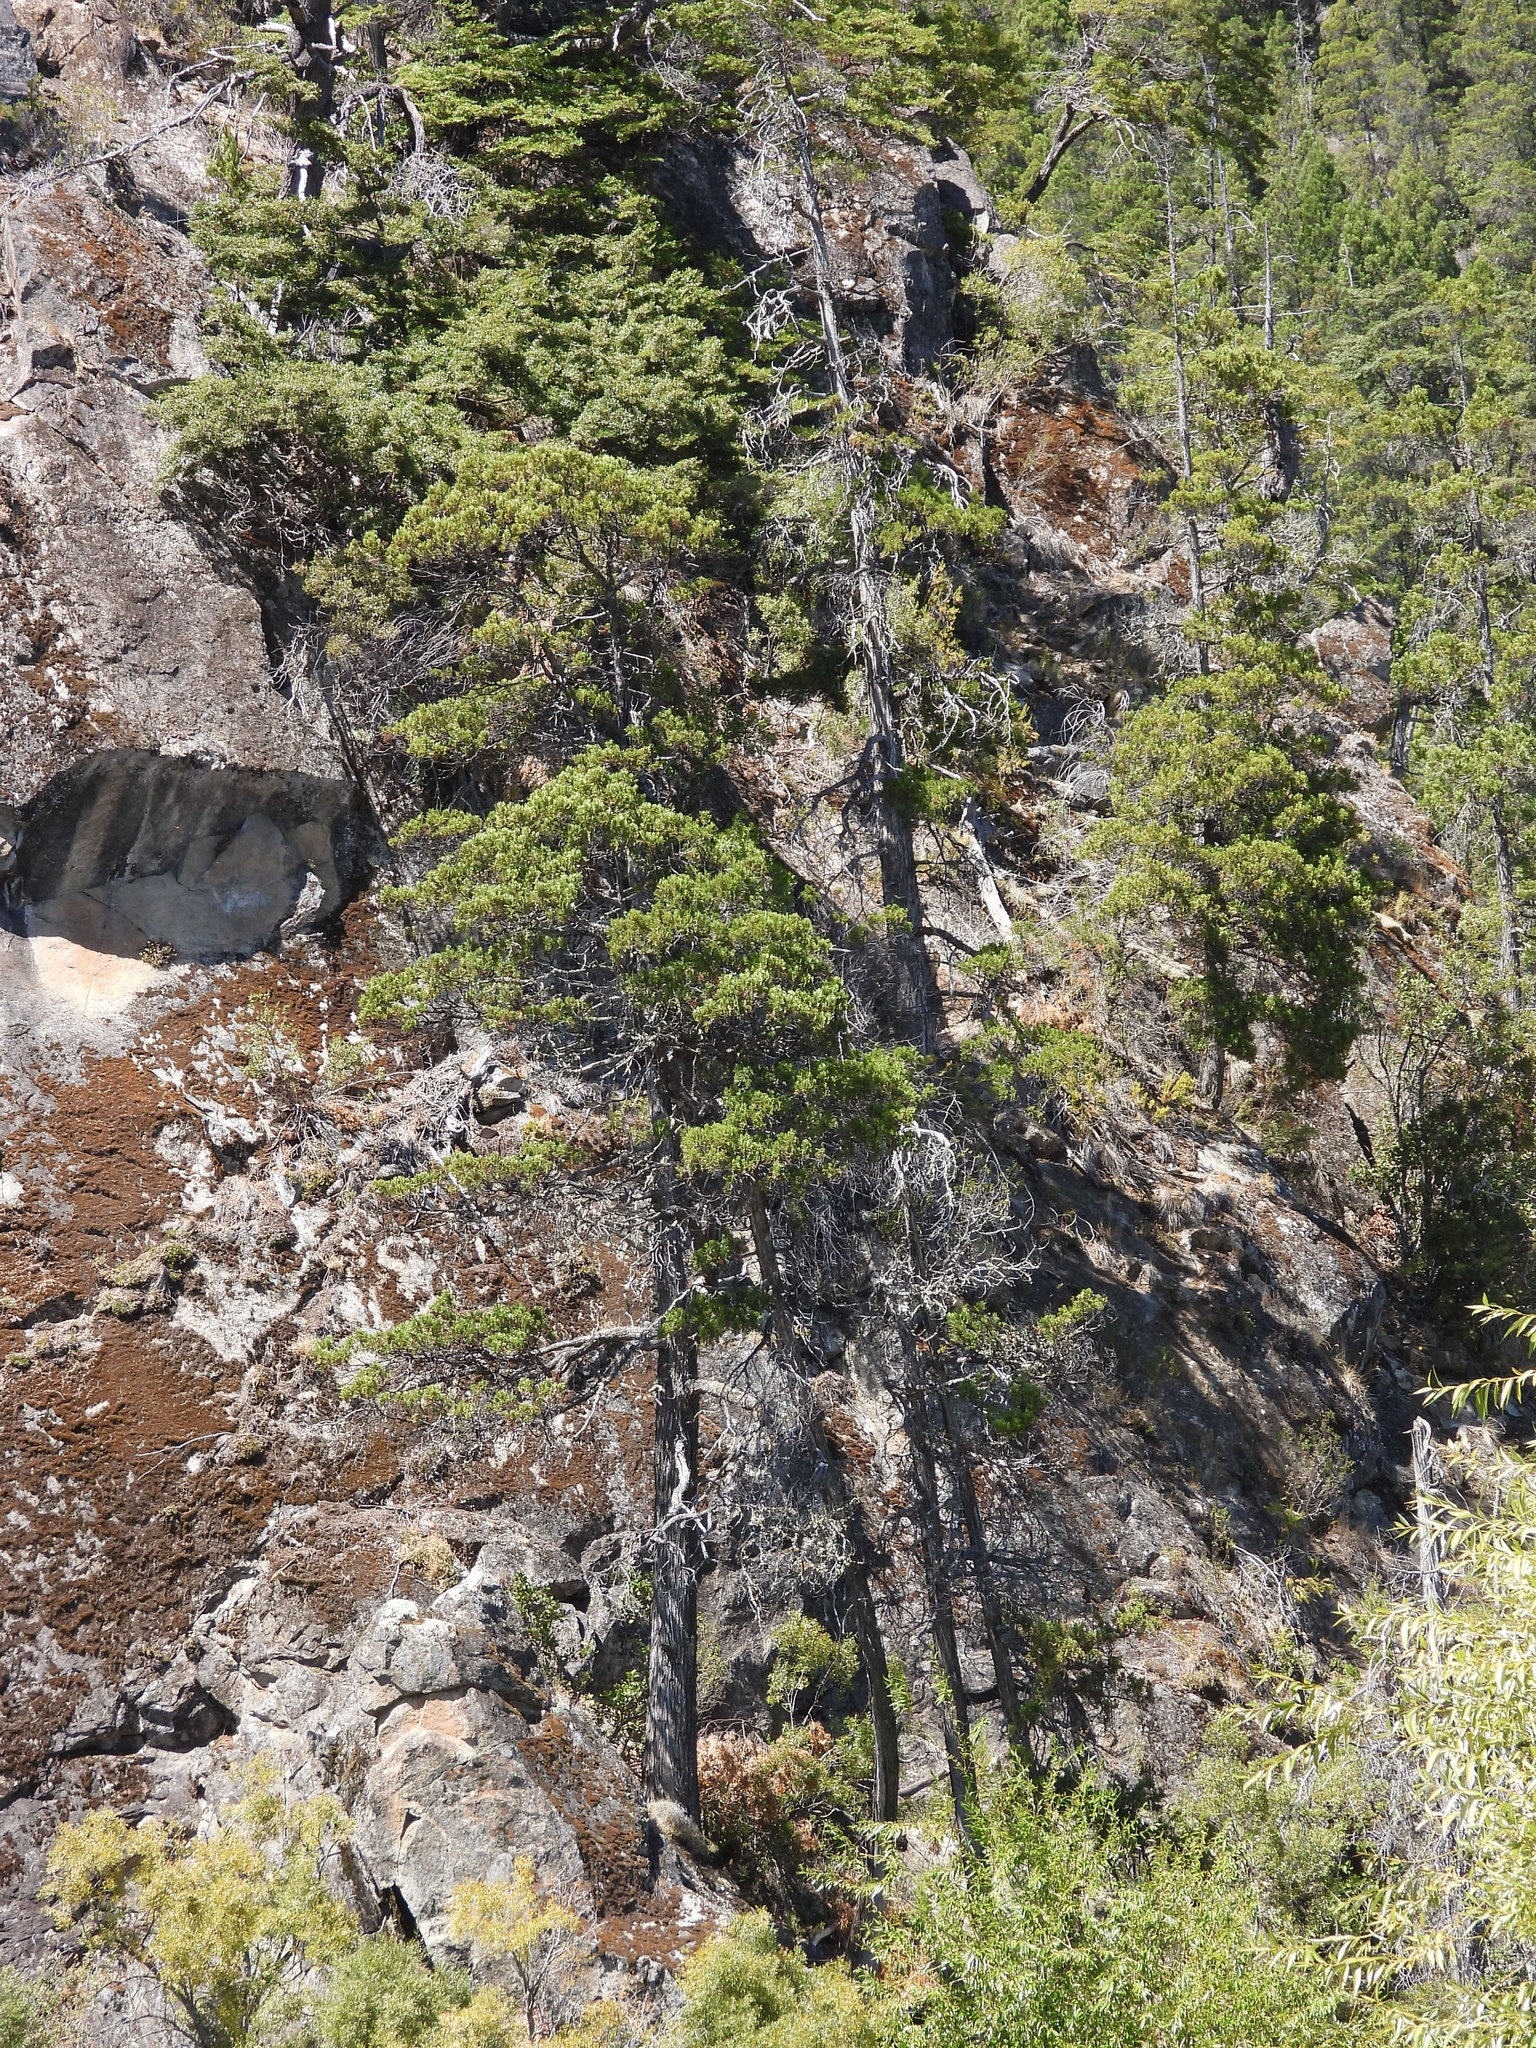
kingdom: Plantae
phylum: Tracheophyta
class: Pinopsida
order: Pinales
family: Cupressaceae
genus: Austrocedrus
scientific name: Austrocedrus chilensis
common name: Chilean incense-cedar
